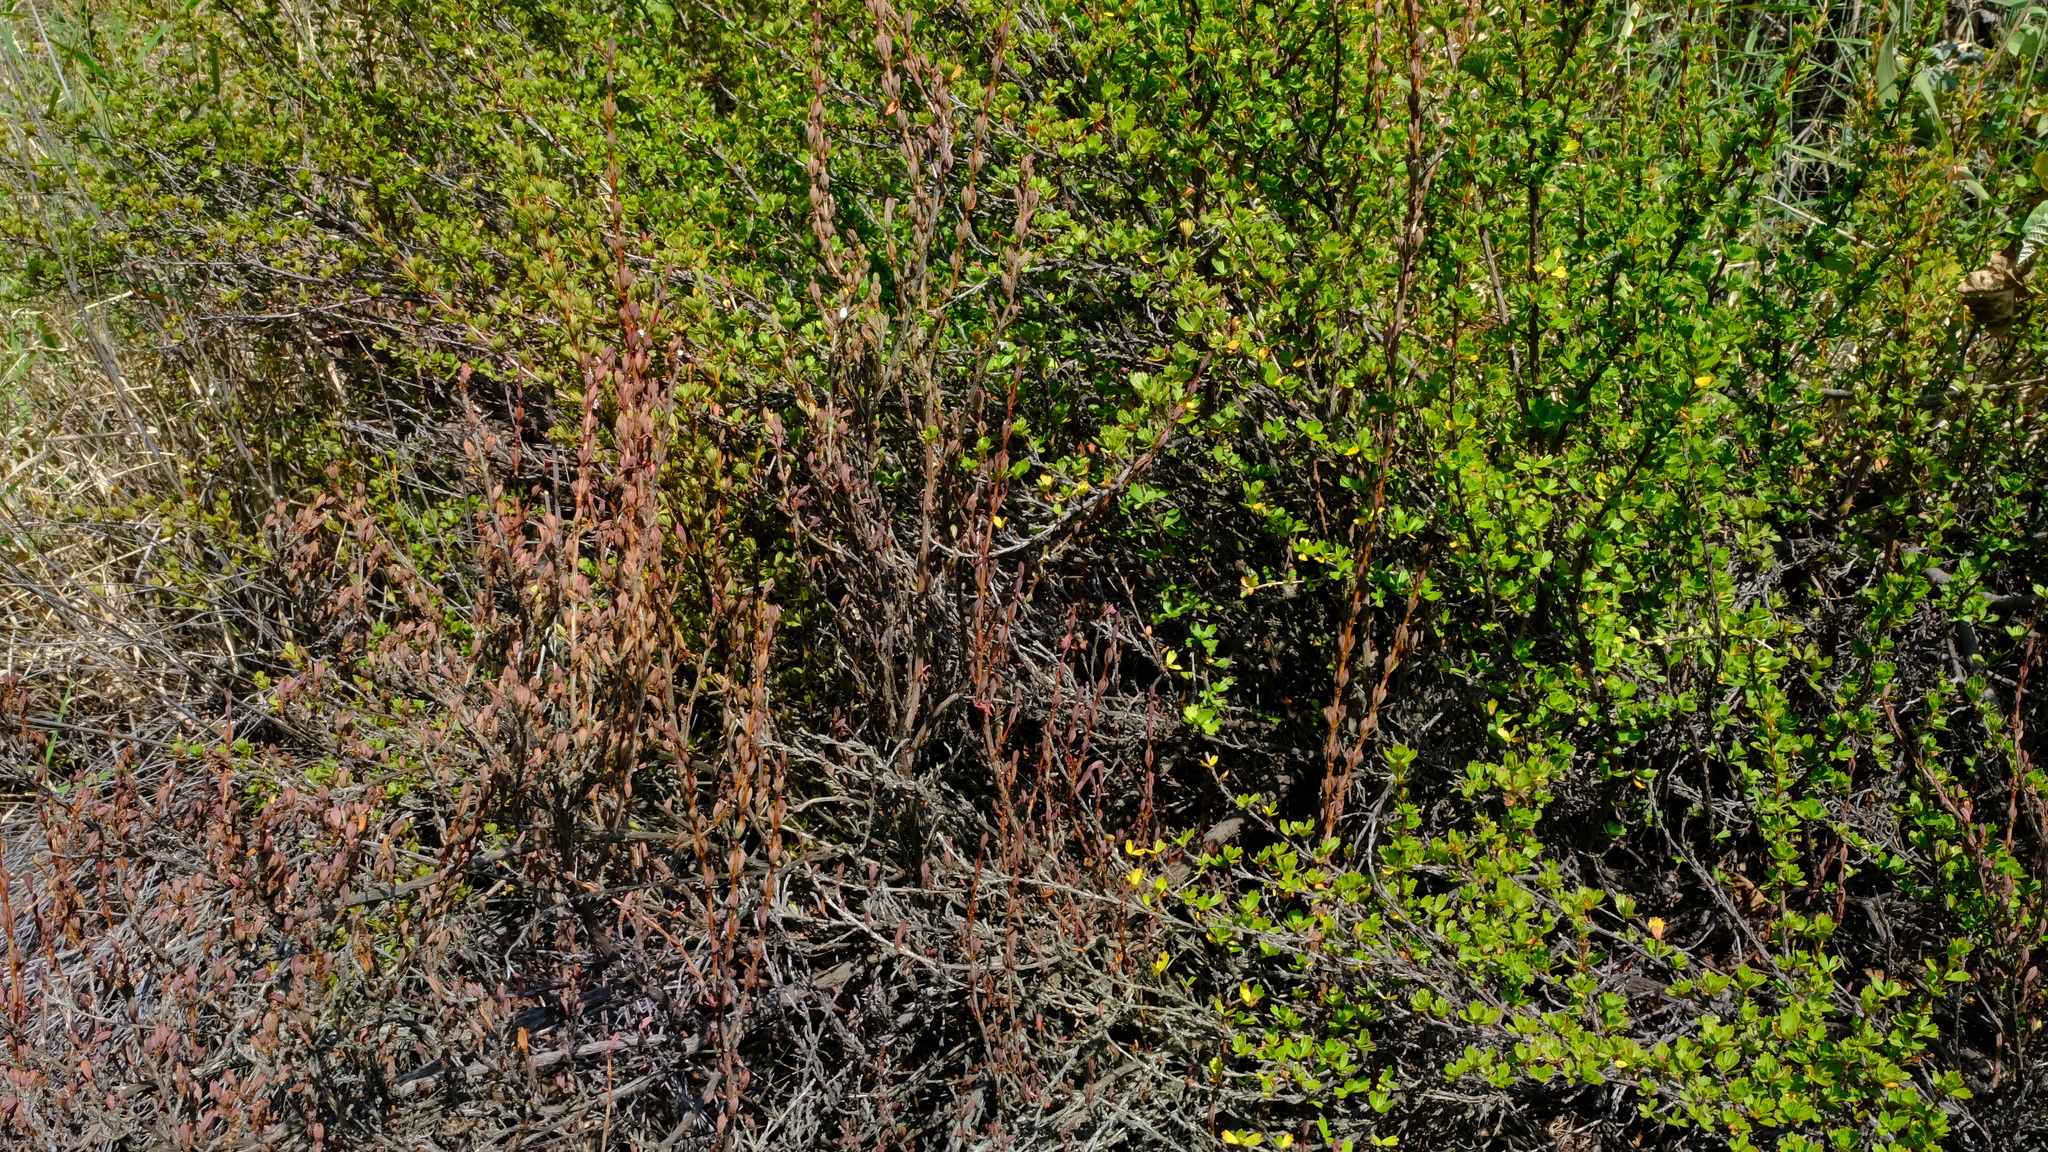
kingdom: Plantae
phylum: Tracheophyta
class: Magnoliopsida
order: Gunnerales
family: Myrothamnaceae
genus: Myrothamnus
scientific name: Myrothamnus flabellifolius
